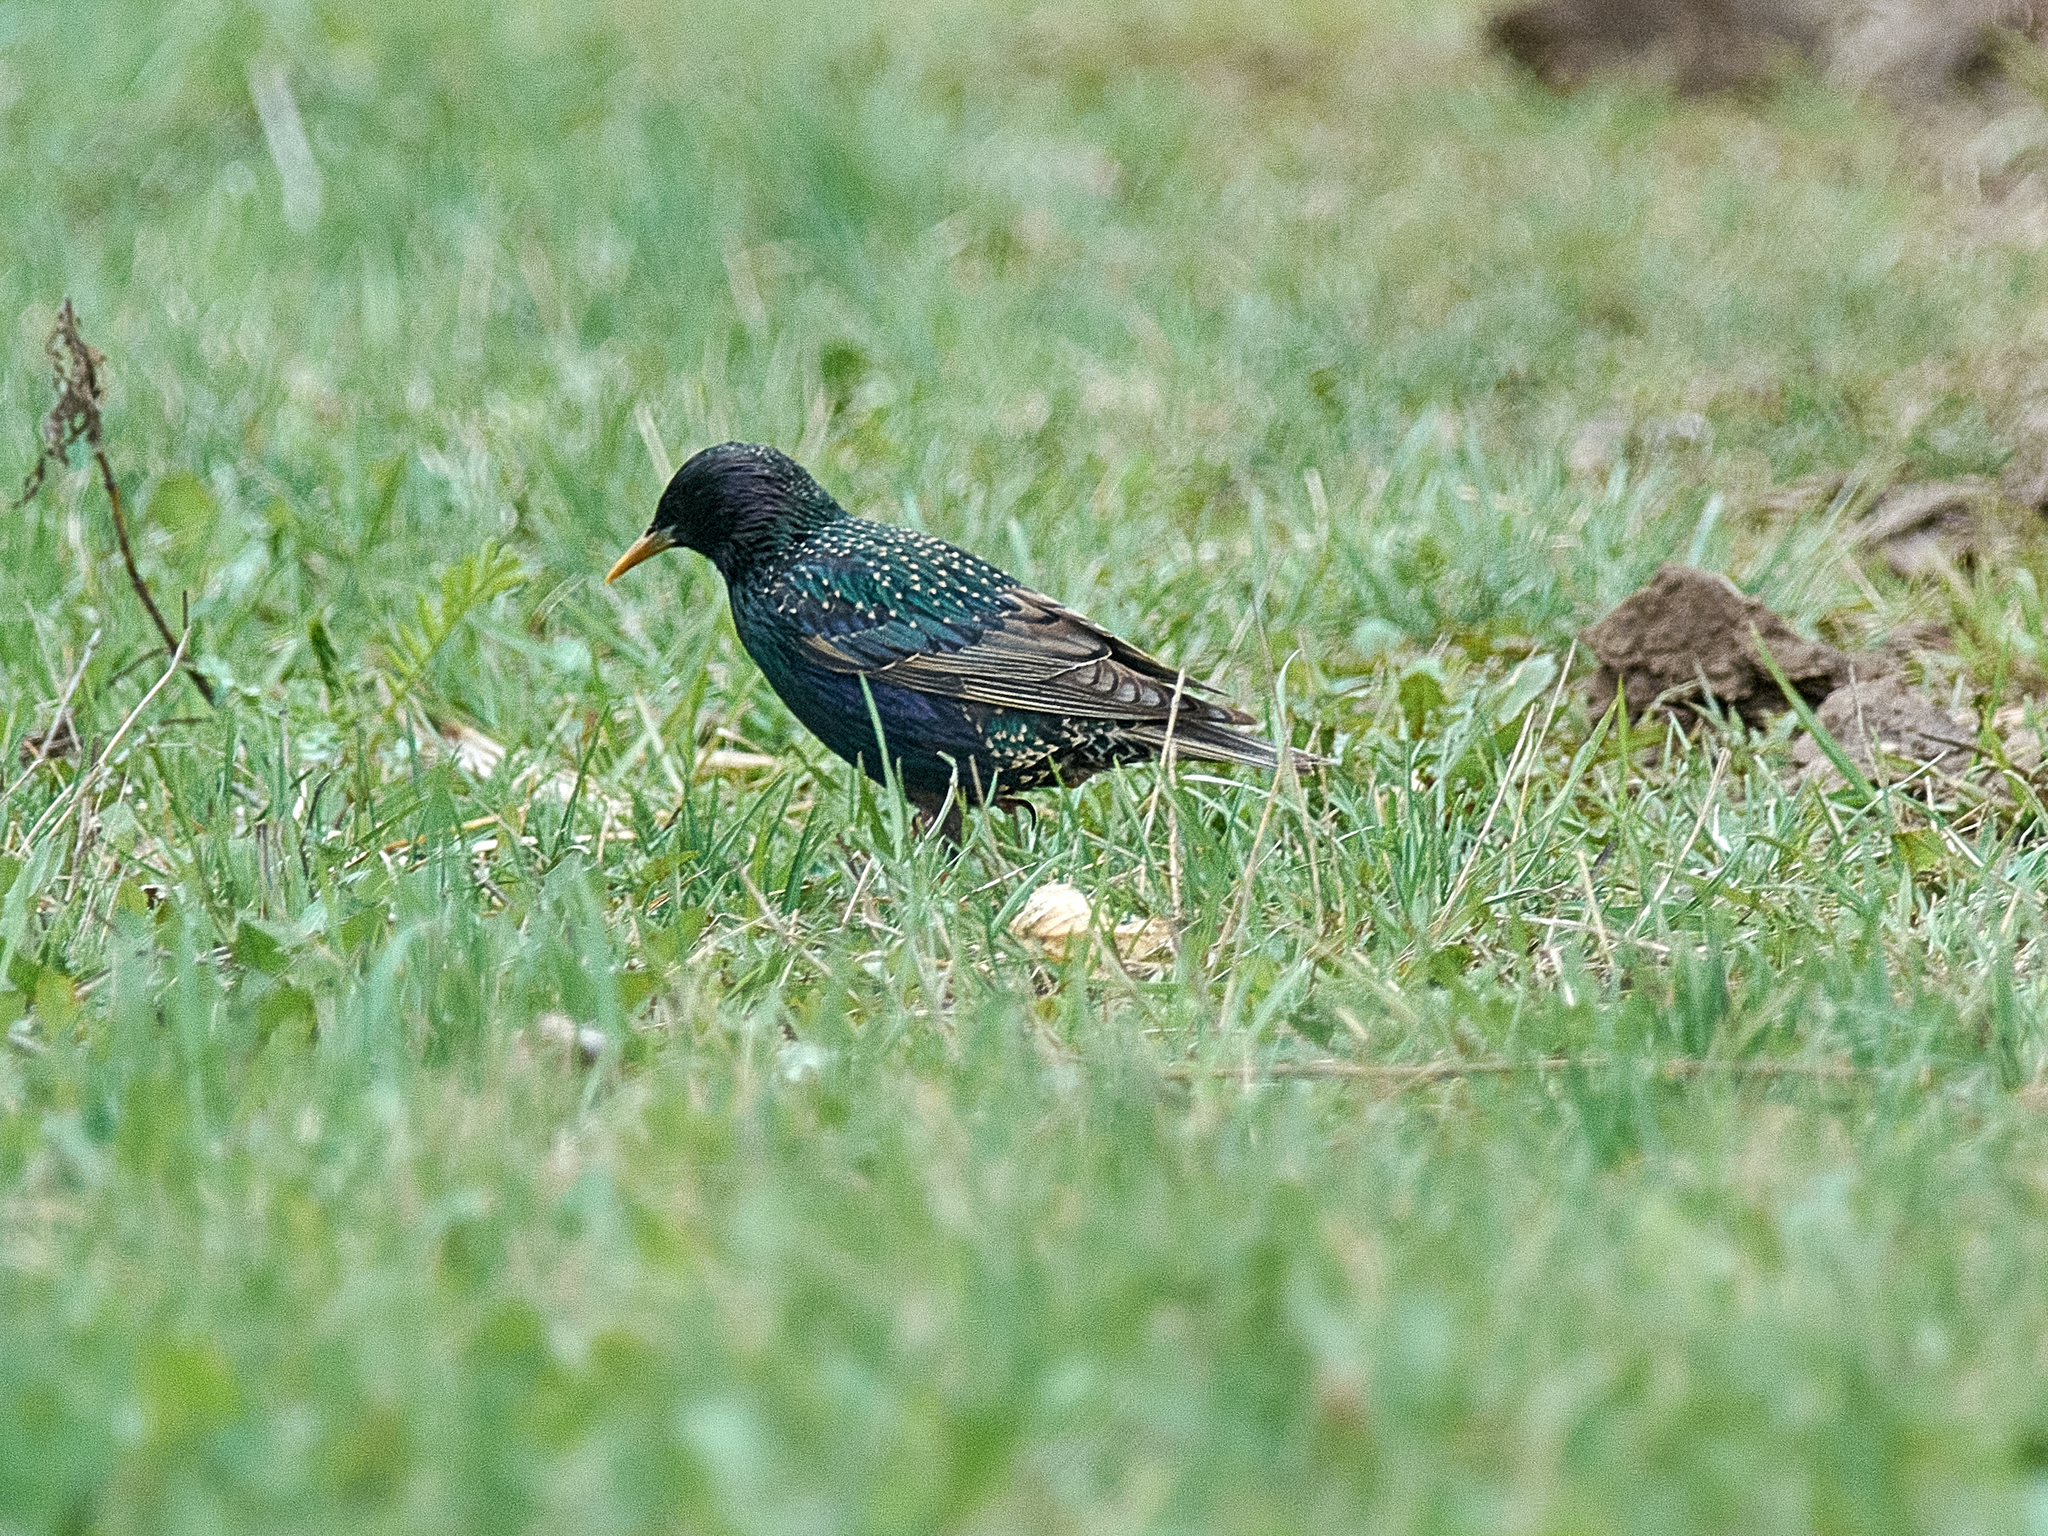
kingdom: Animalia
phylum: Chordata
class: Aves
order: Passeriformes
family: Sturnidae
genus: Sturnus
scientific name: Sturnus vulgaris
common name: Common starling
